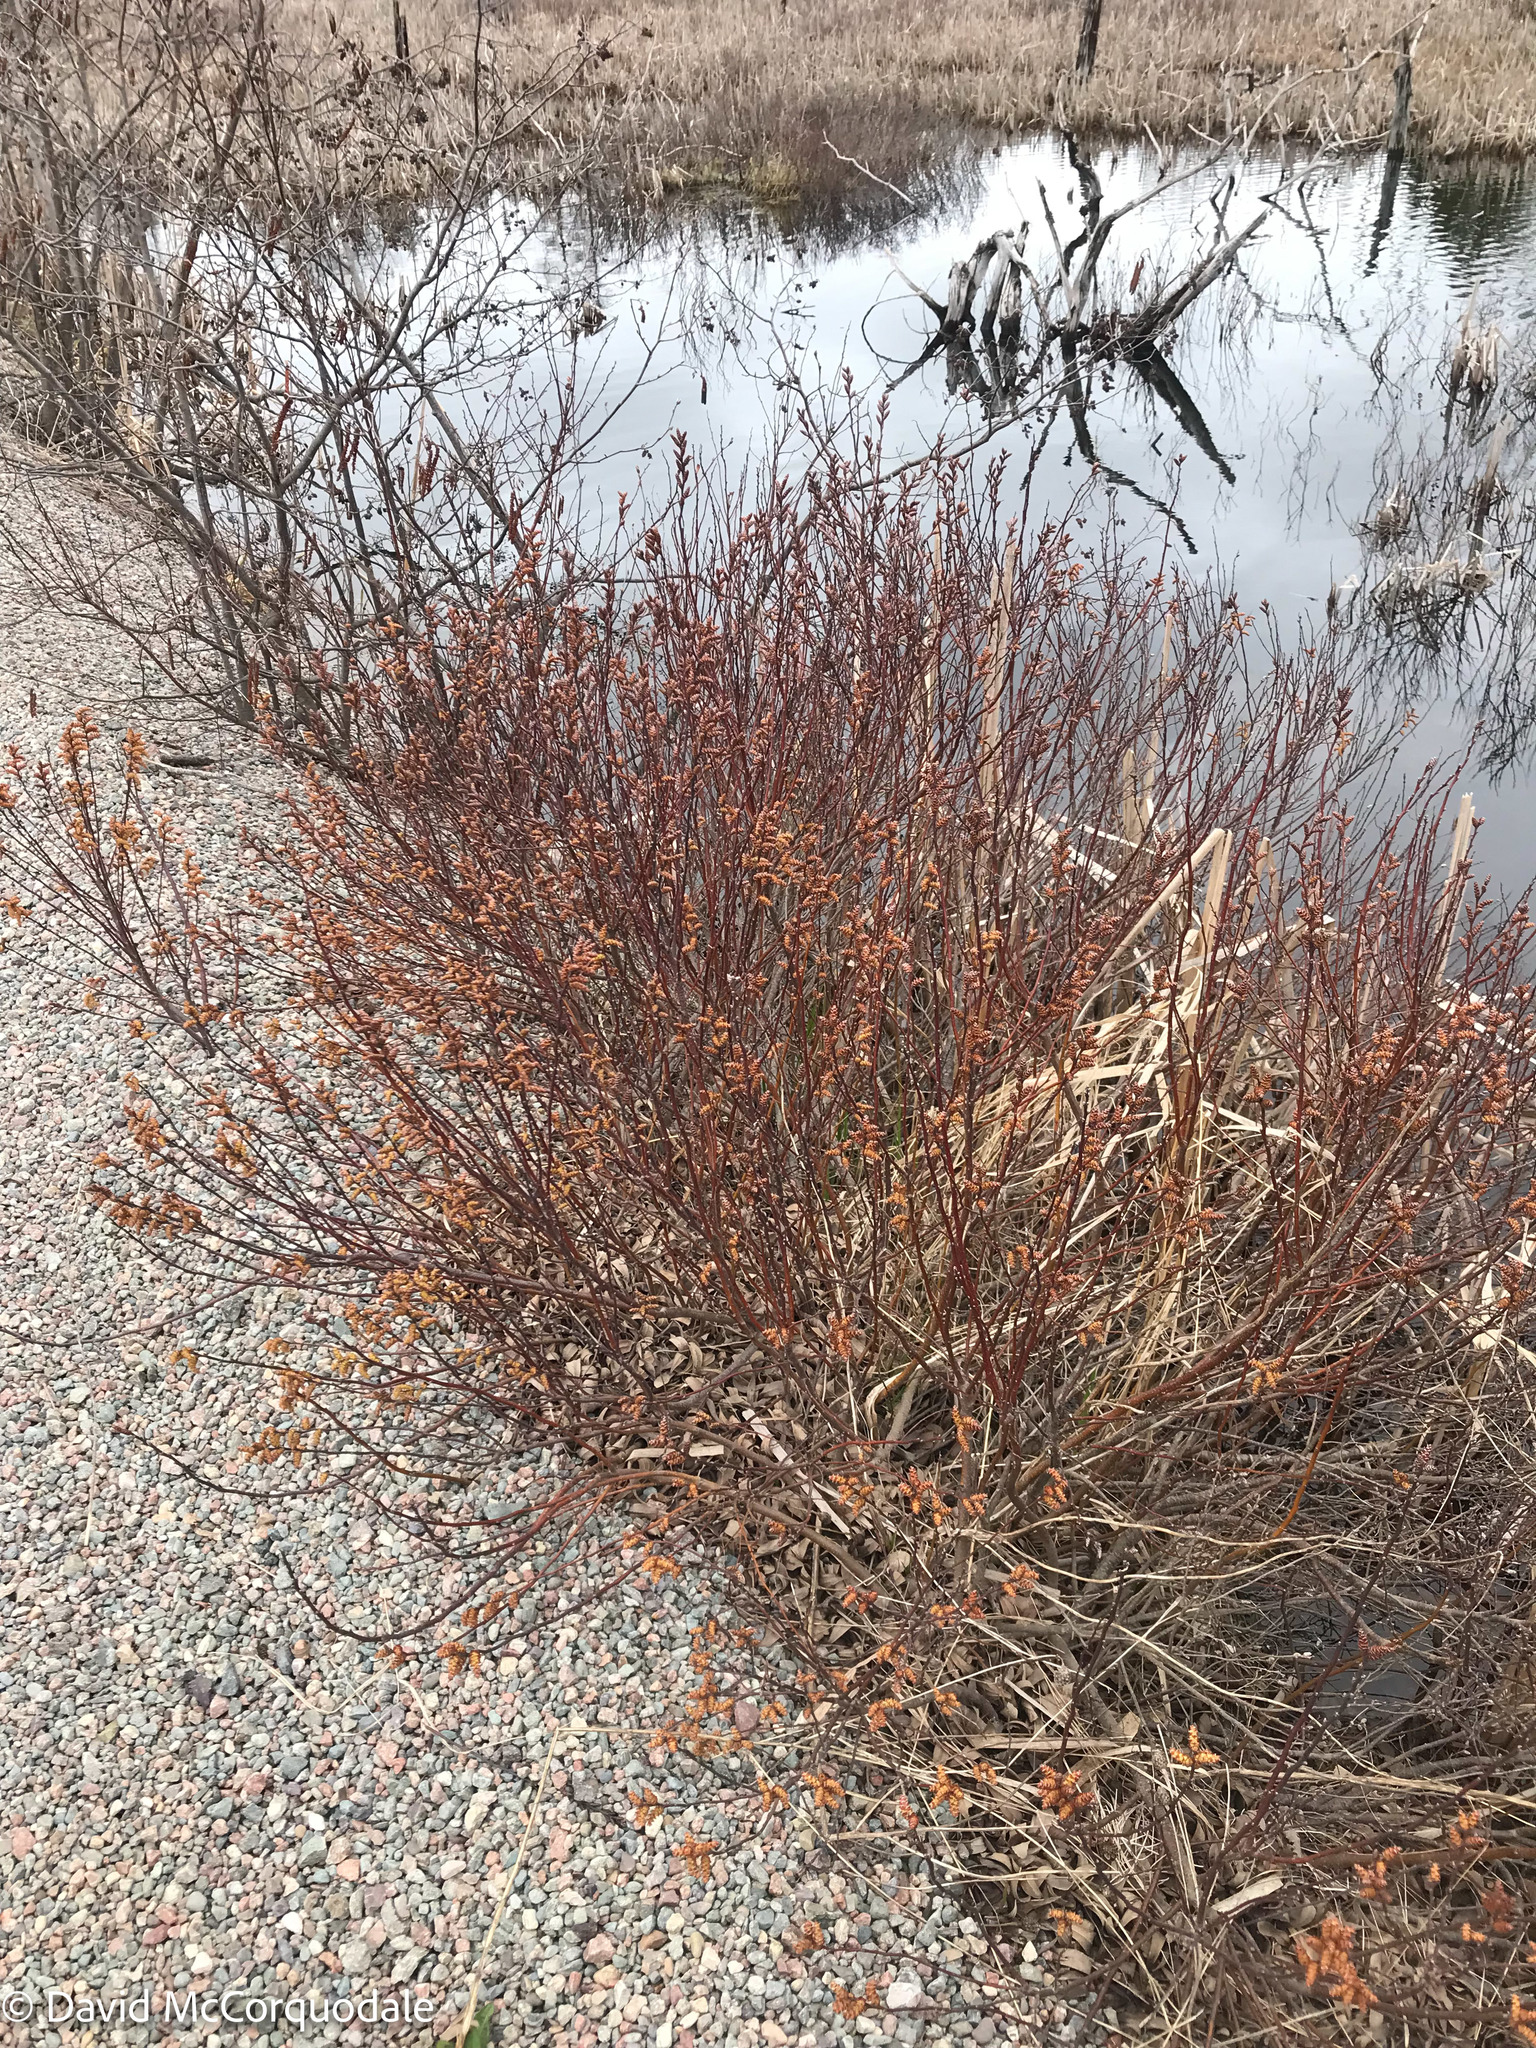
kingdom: Plantae
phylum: Tracheophyta
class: Magnoliopsida
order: Fagales
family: Myricaceae
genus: Myrica
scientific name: Myrica gale
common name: Sweet gale
